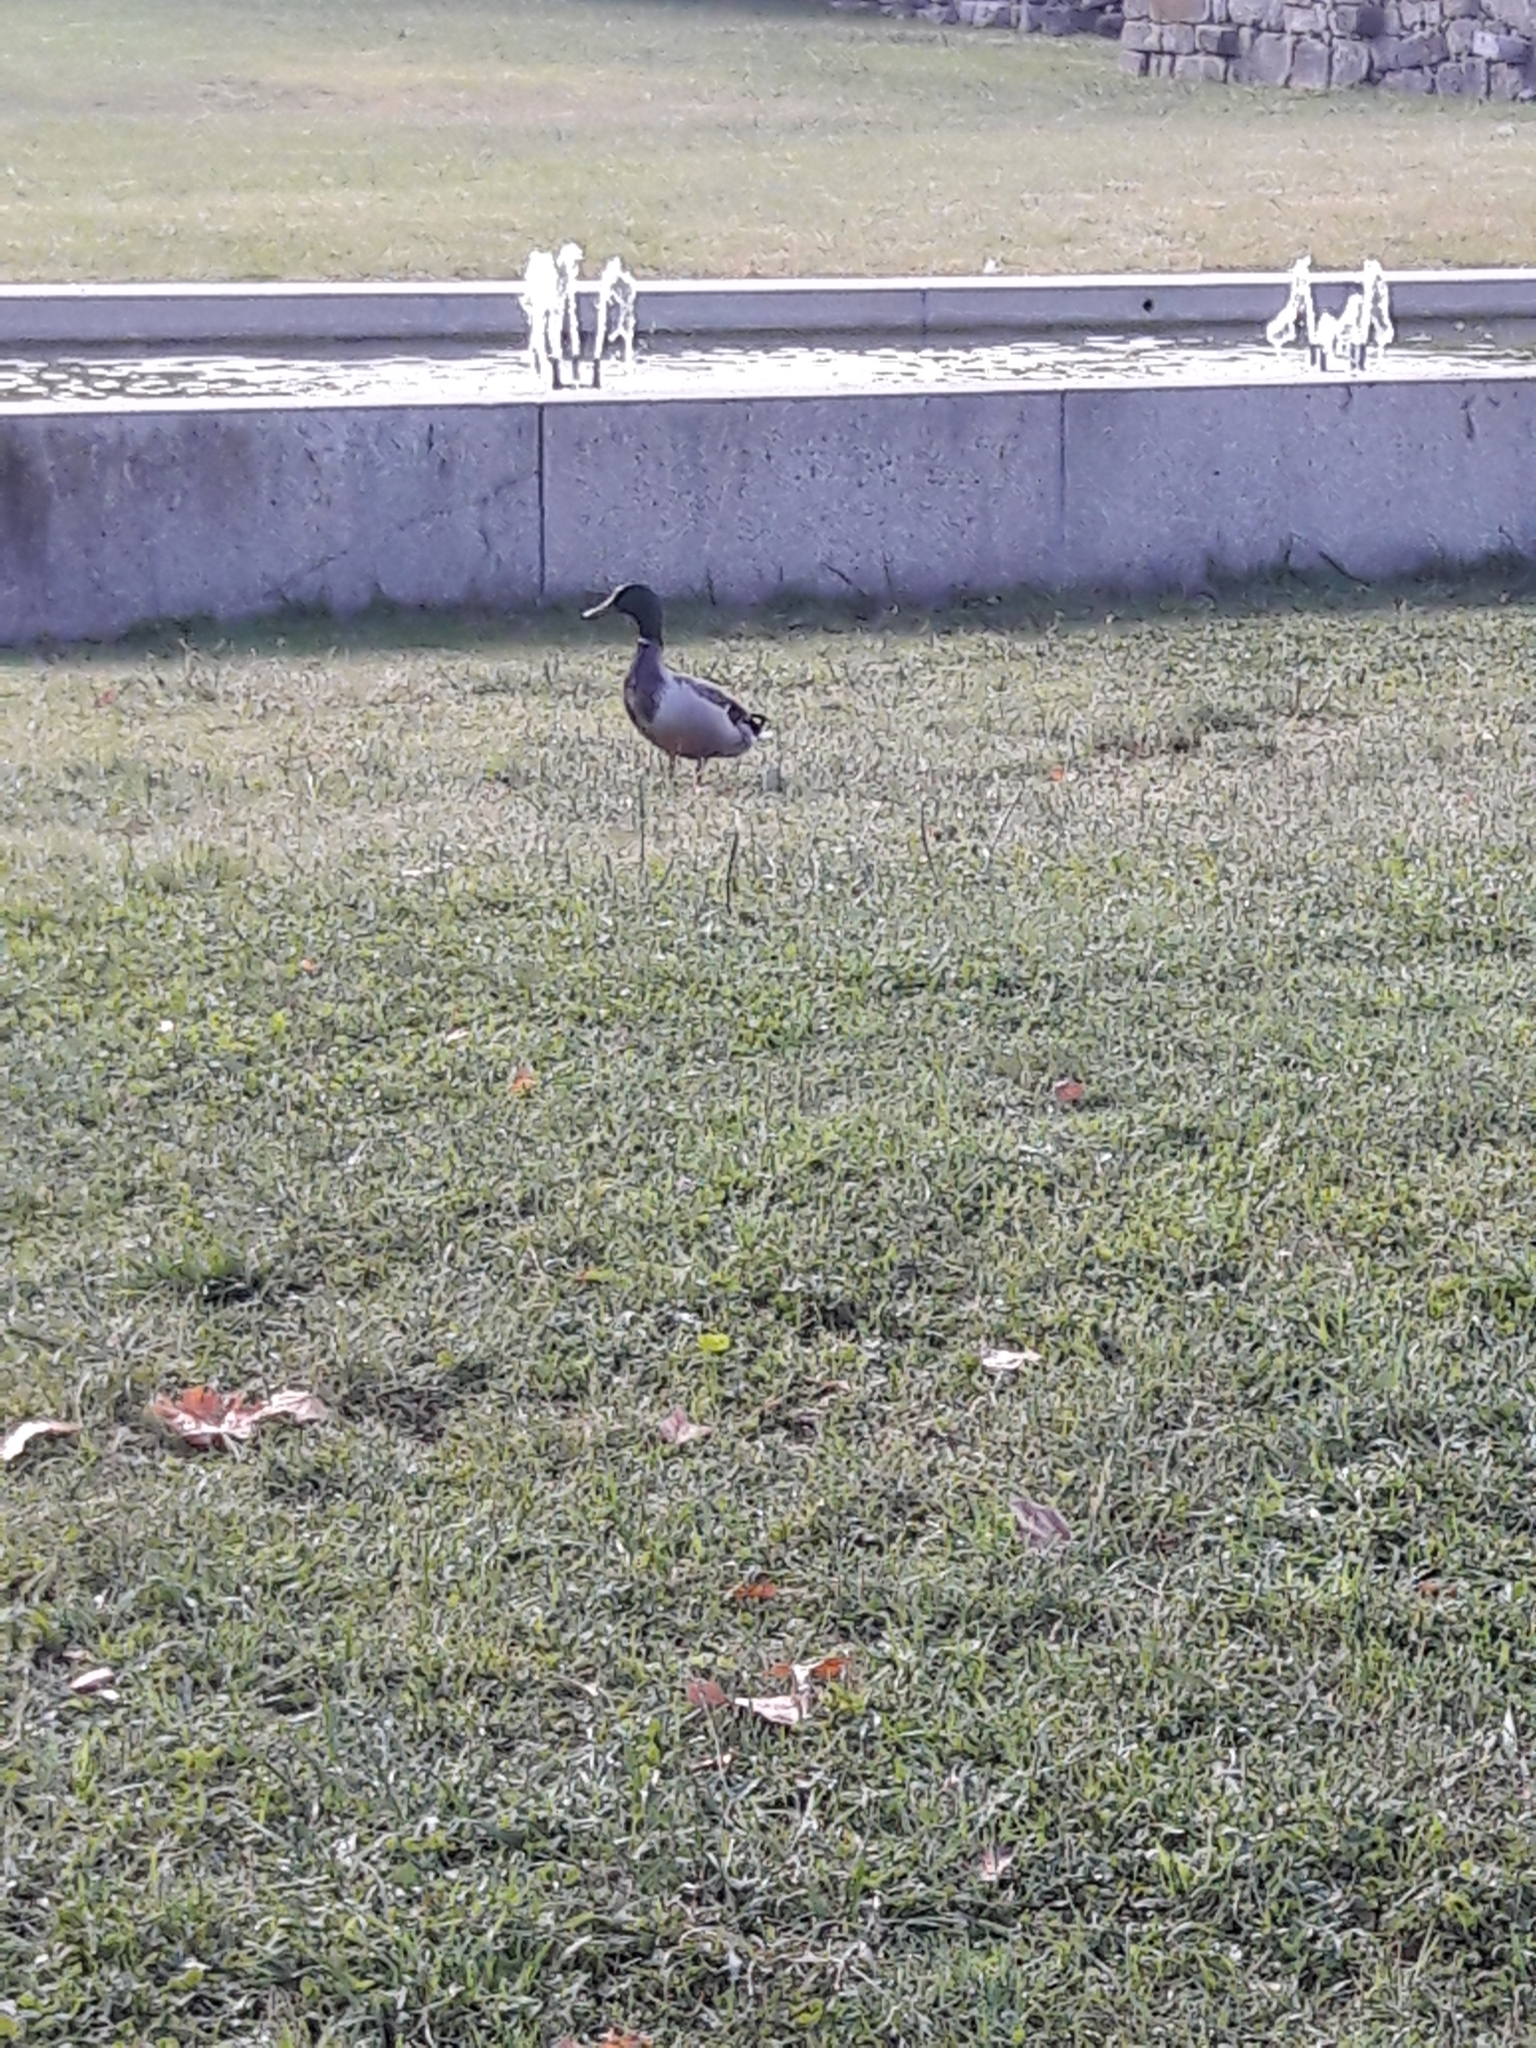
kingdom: Animalia
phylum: Chordata
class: Aves
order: Anseriformes
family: Anatidae
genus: Anas
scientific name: Anas platyrhynchos
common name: Mallard
